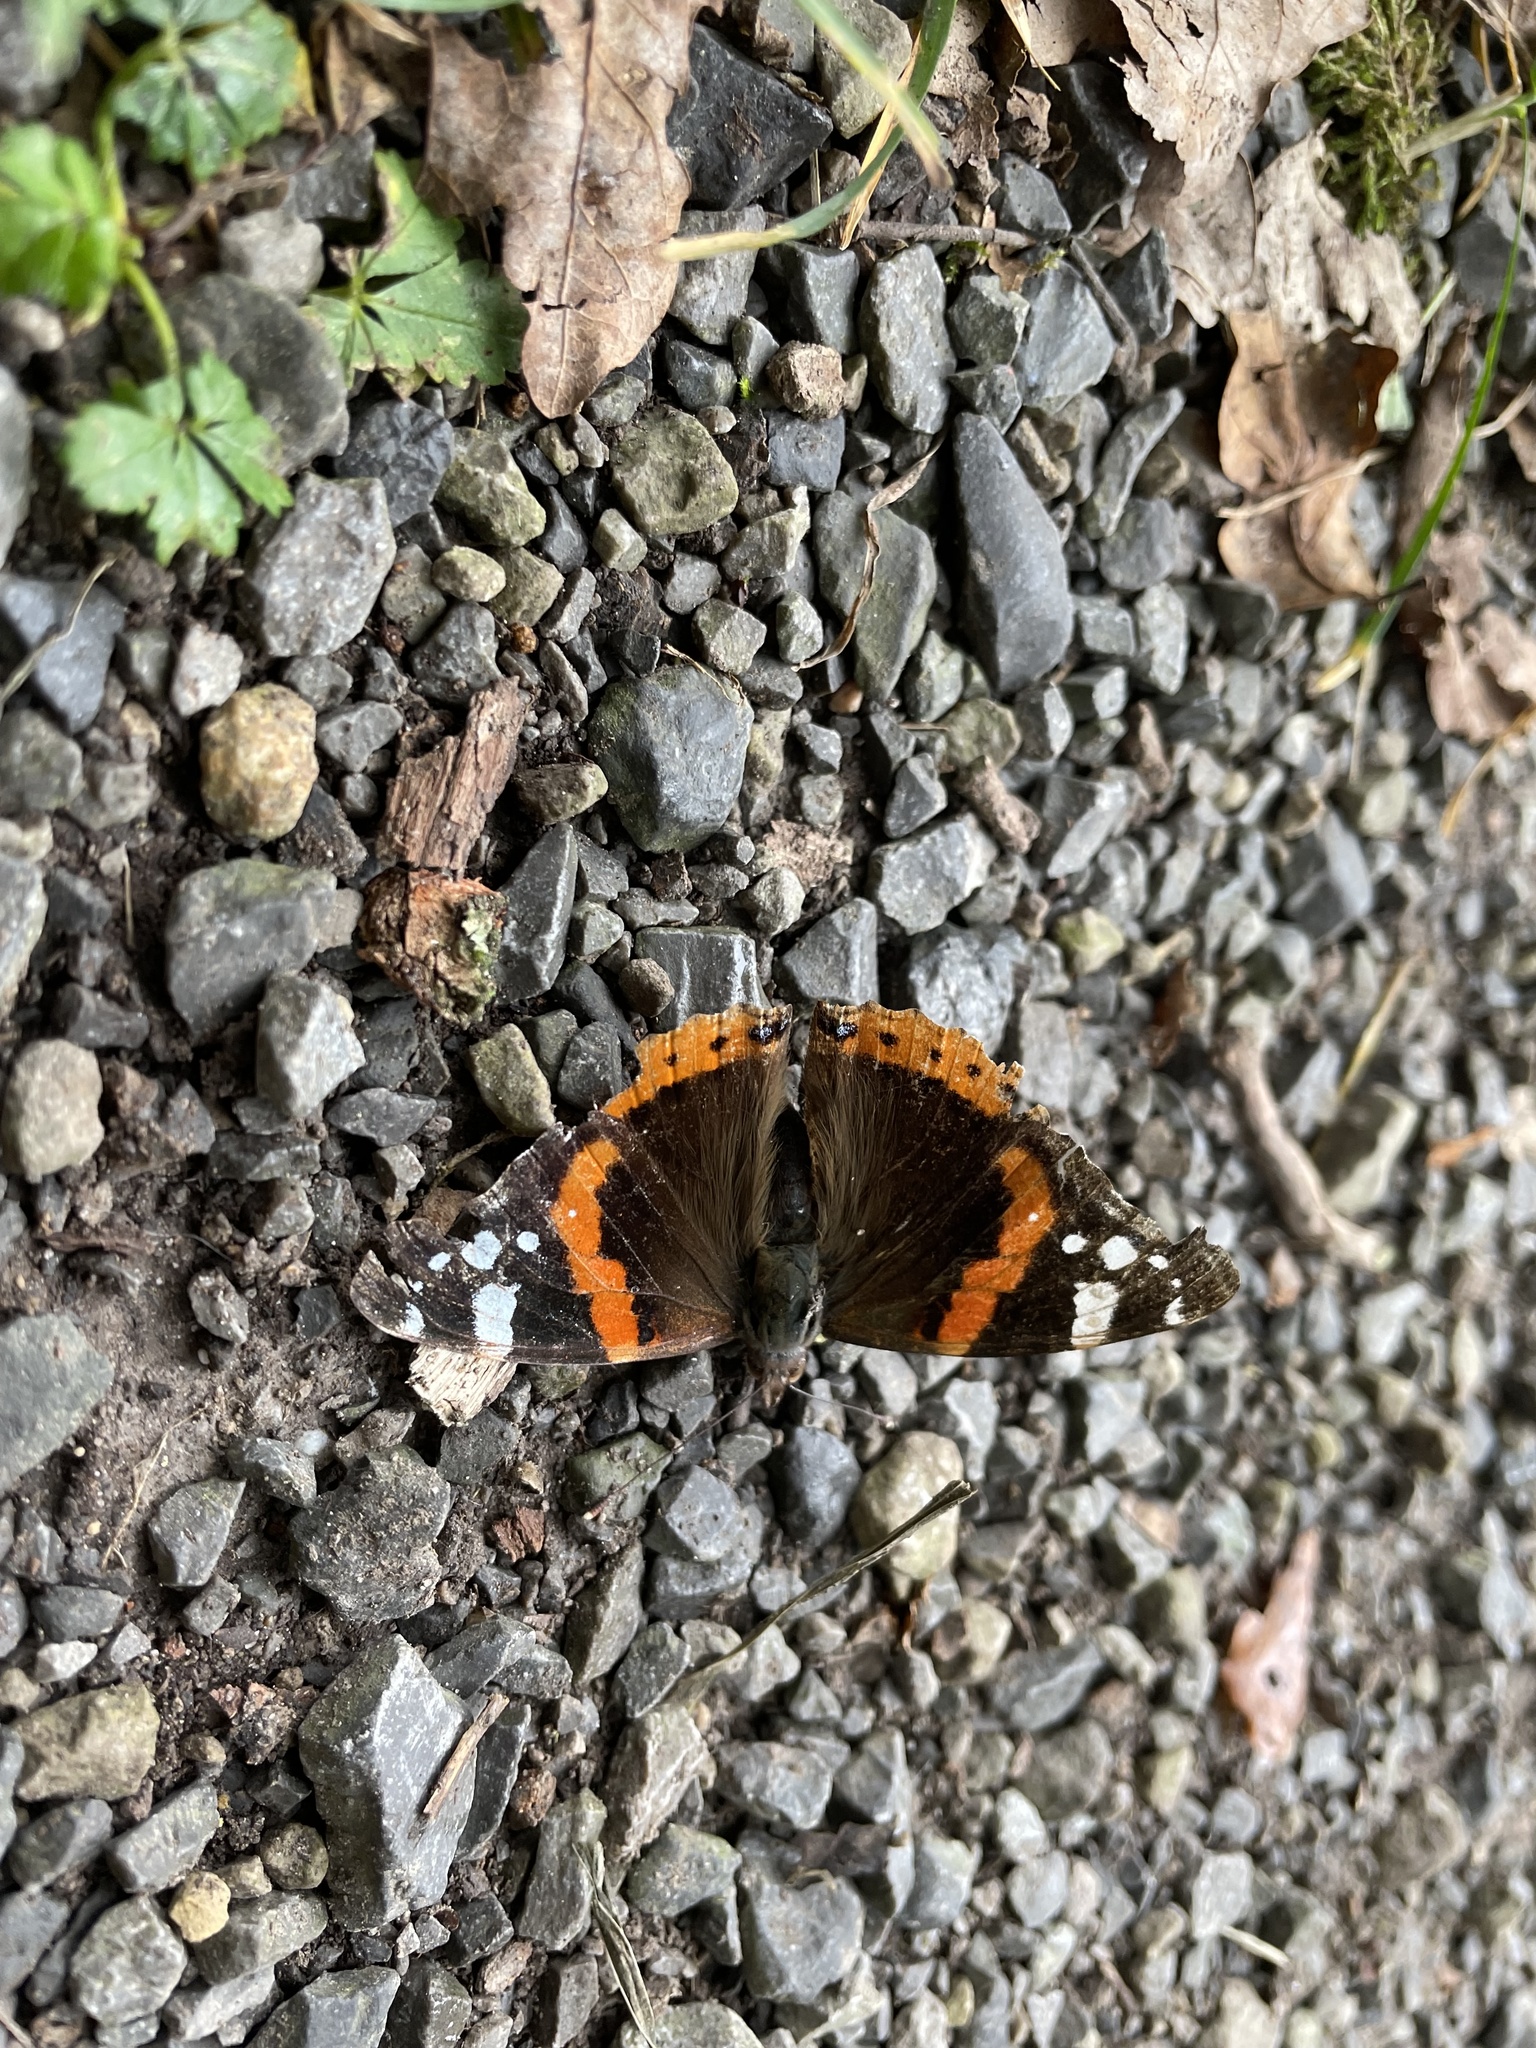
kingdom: Animalia
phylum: Arthropoda
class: Insecta
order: Lepidoptera
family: Nymphalidae
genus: Vanessa
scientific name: Vanessa atalanta
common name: Red admiral
